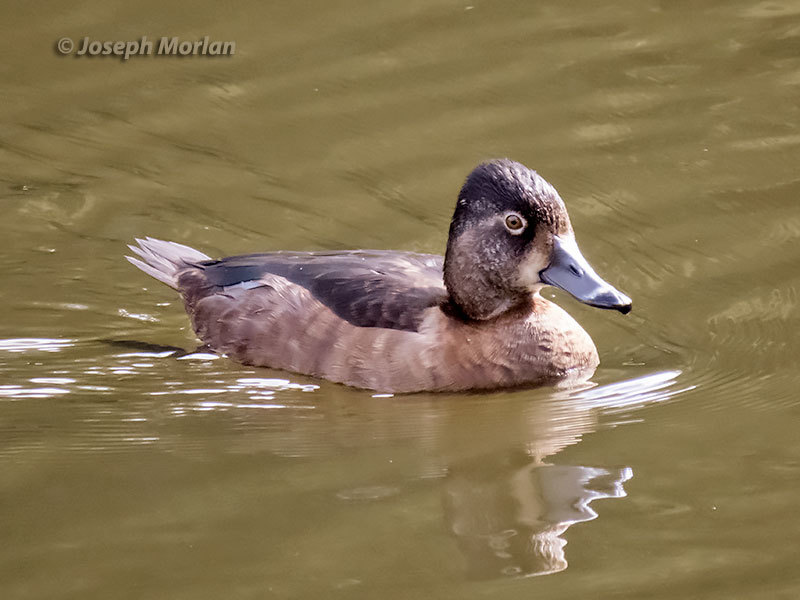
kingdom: Animalia
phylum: Chordata
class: Aves
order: Anseriformes
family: Anatidae
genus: Aythya
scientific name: Aythya collaris
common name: Ring-necked duck
